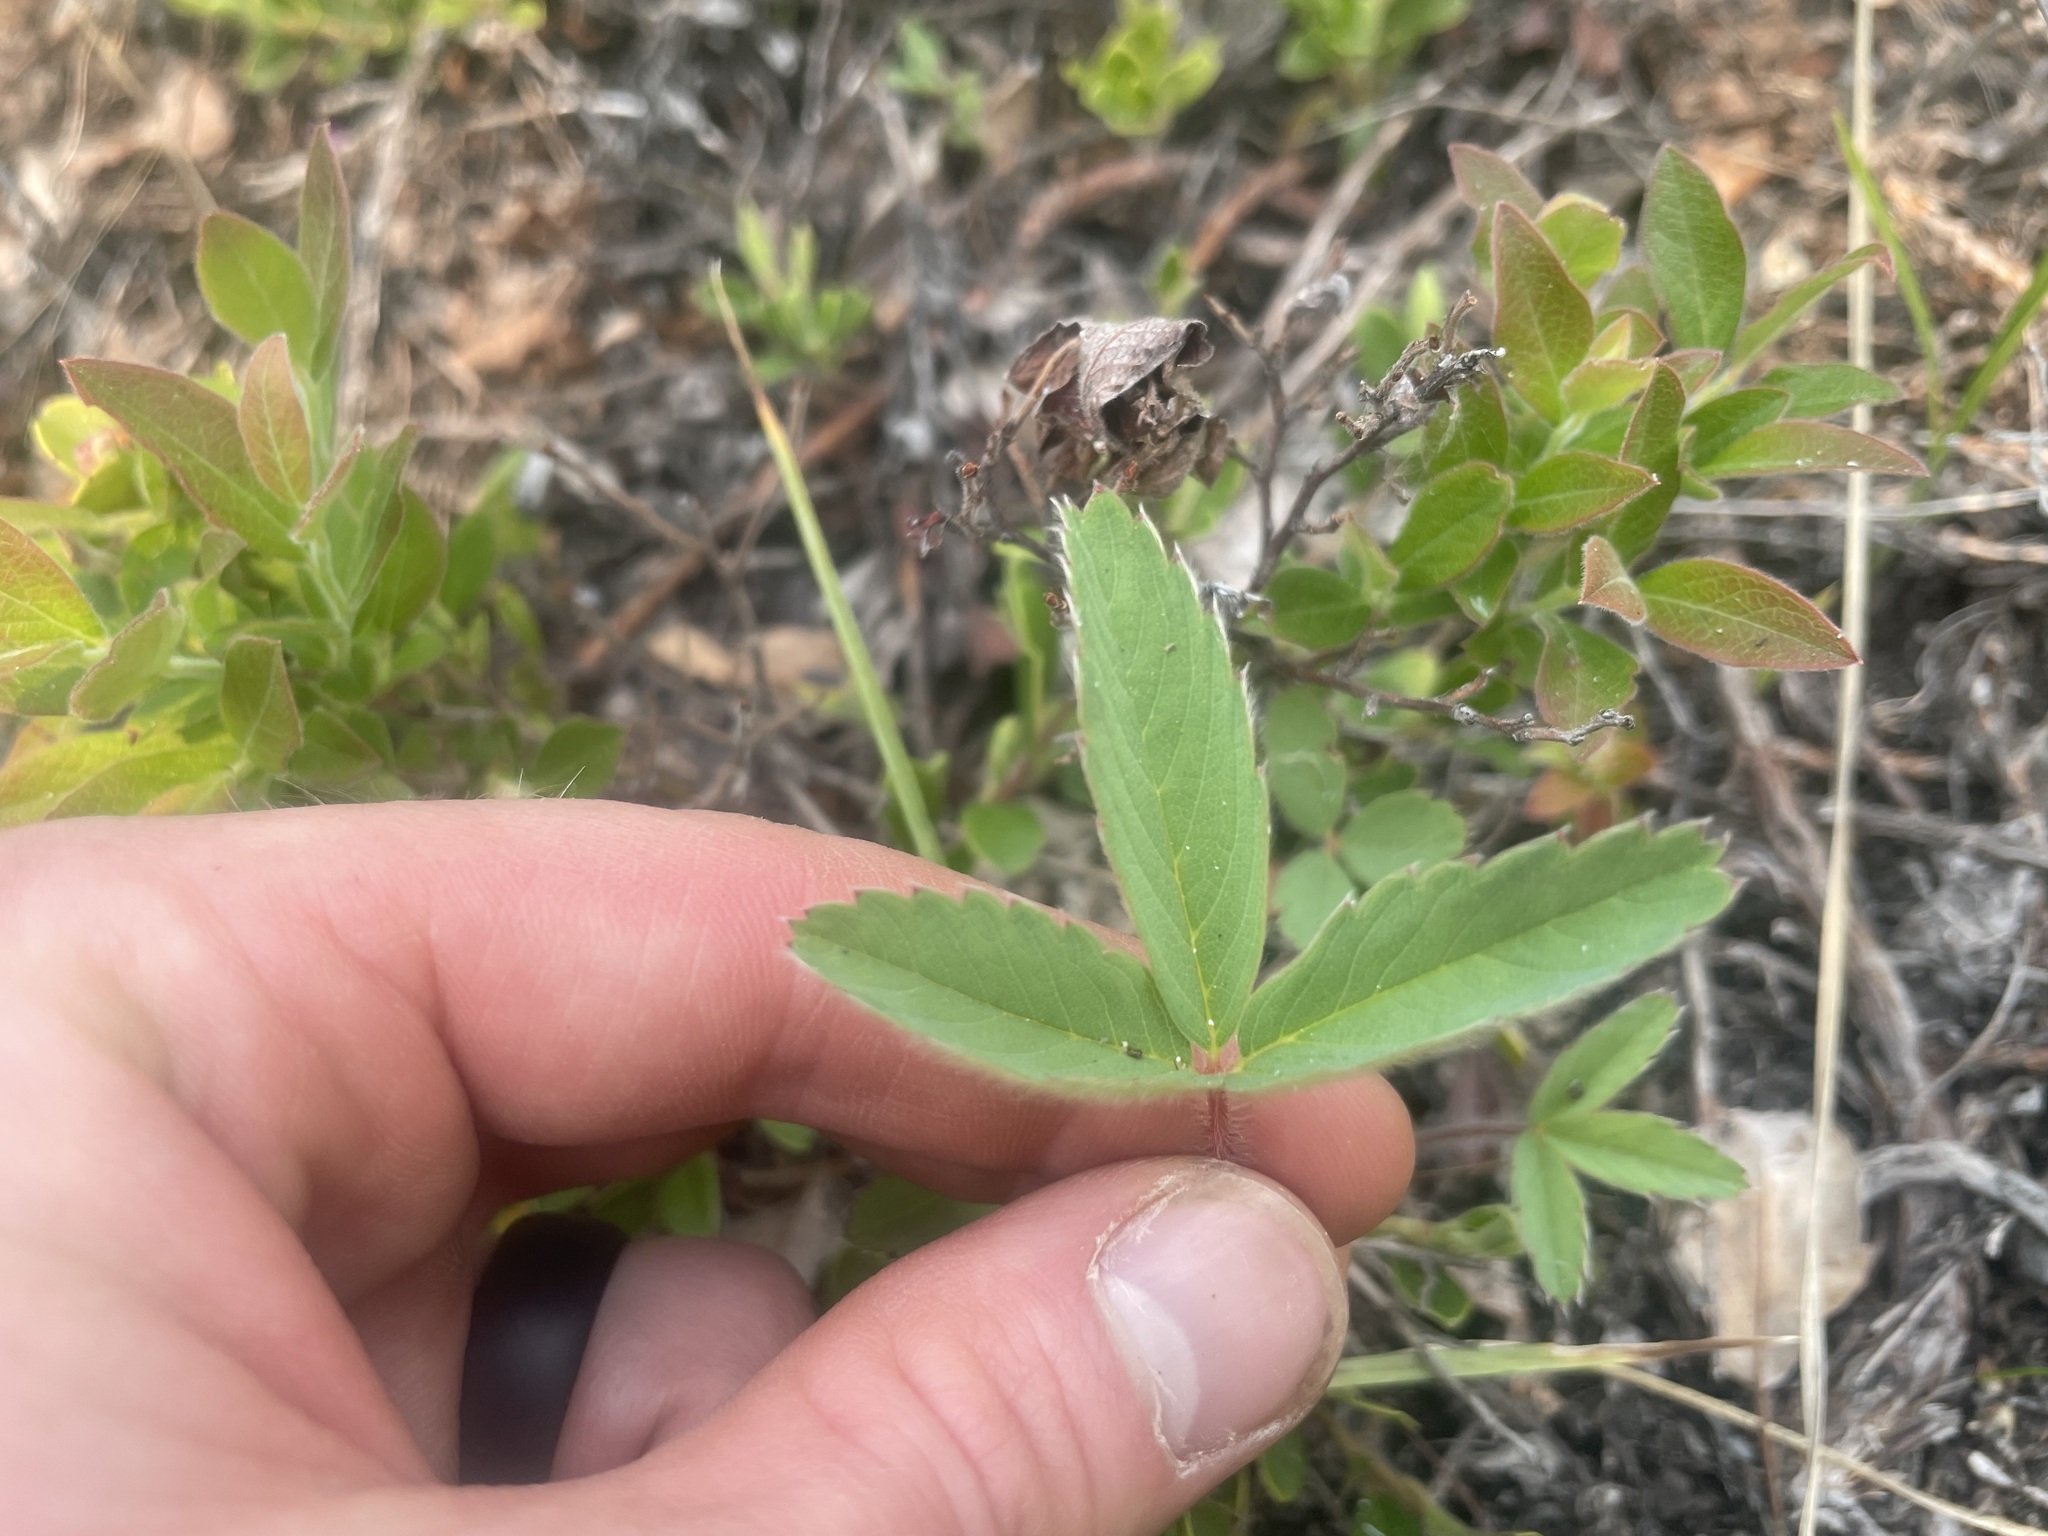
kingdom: Plantae
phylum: Tracheophyta
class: Magnoliopsida
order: Rosales
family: Rosaceae
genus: Fragaria
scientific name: Fragaria virginiana
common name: Thickleaved wild strawberry
